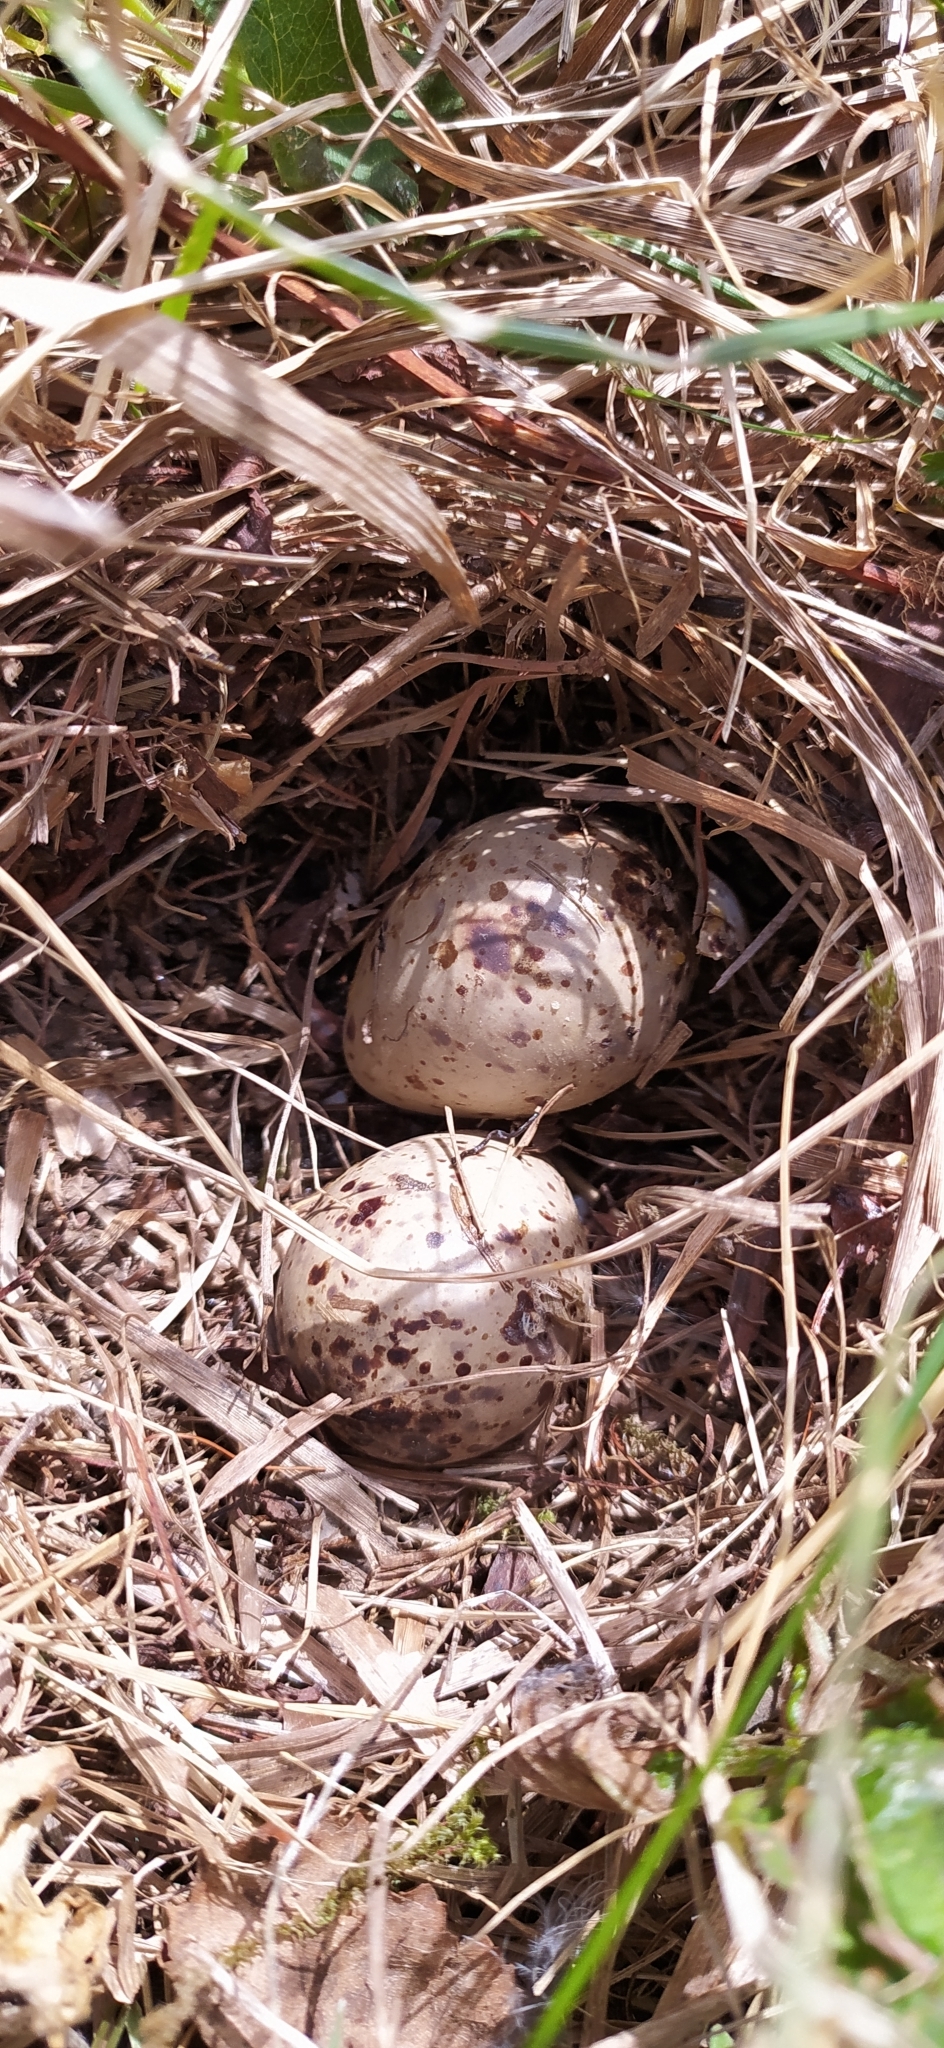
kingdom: Animalia
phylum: Chordata
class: Aves
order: Charadriiformes
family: Scolopacidae
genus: Actitis
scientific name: Actitis hypoleucos
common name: Common sandpiper
